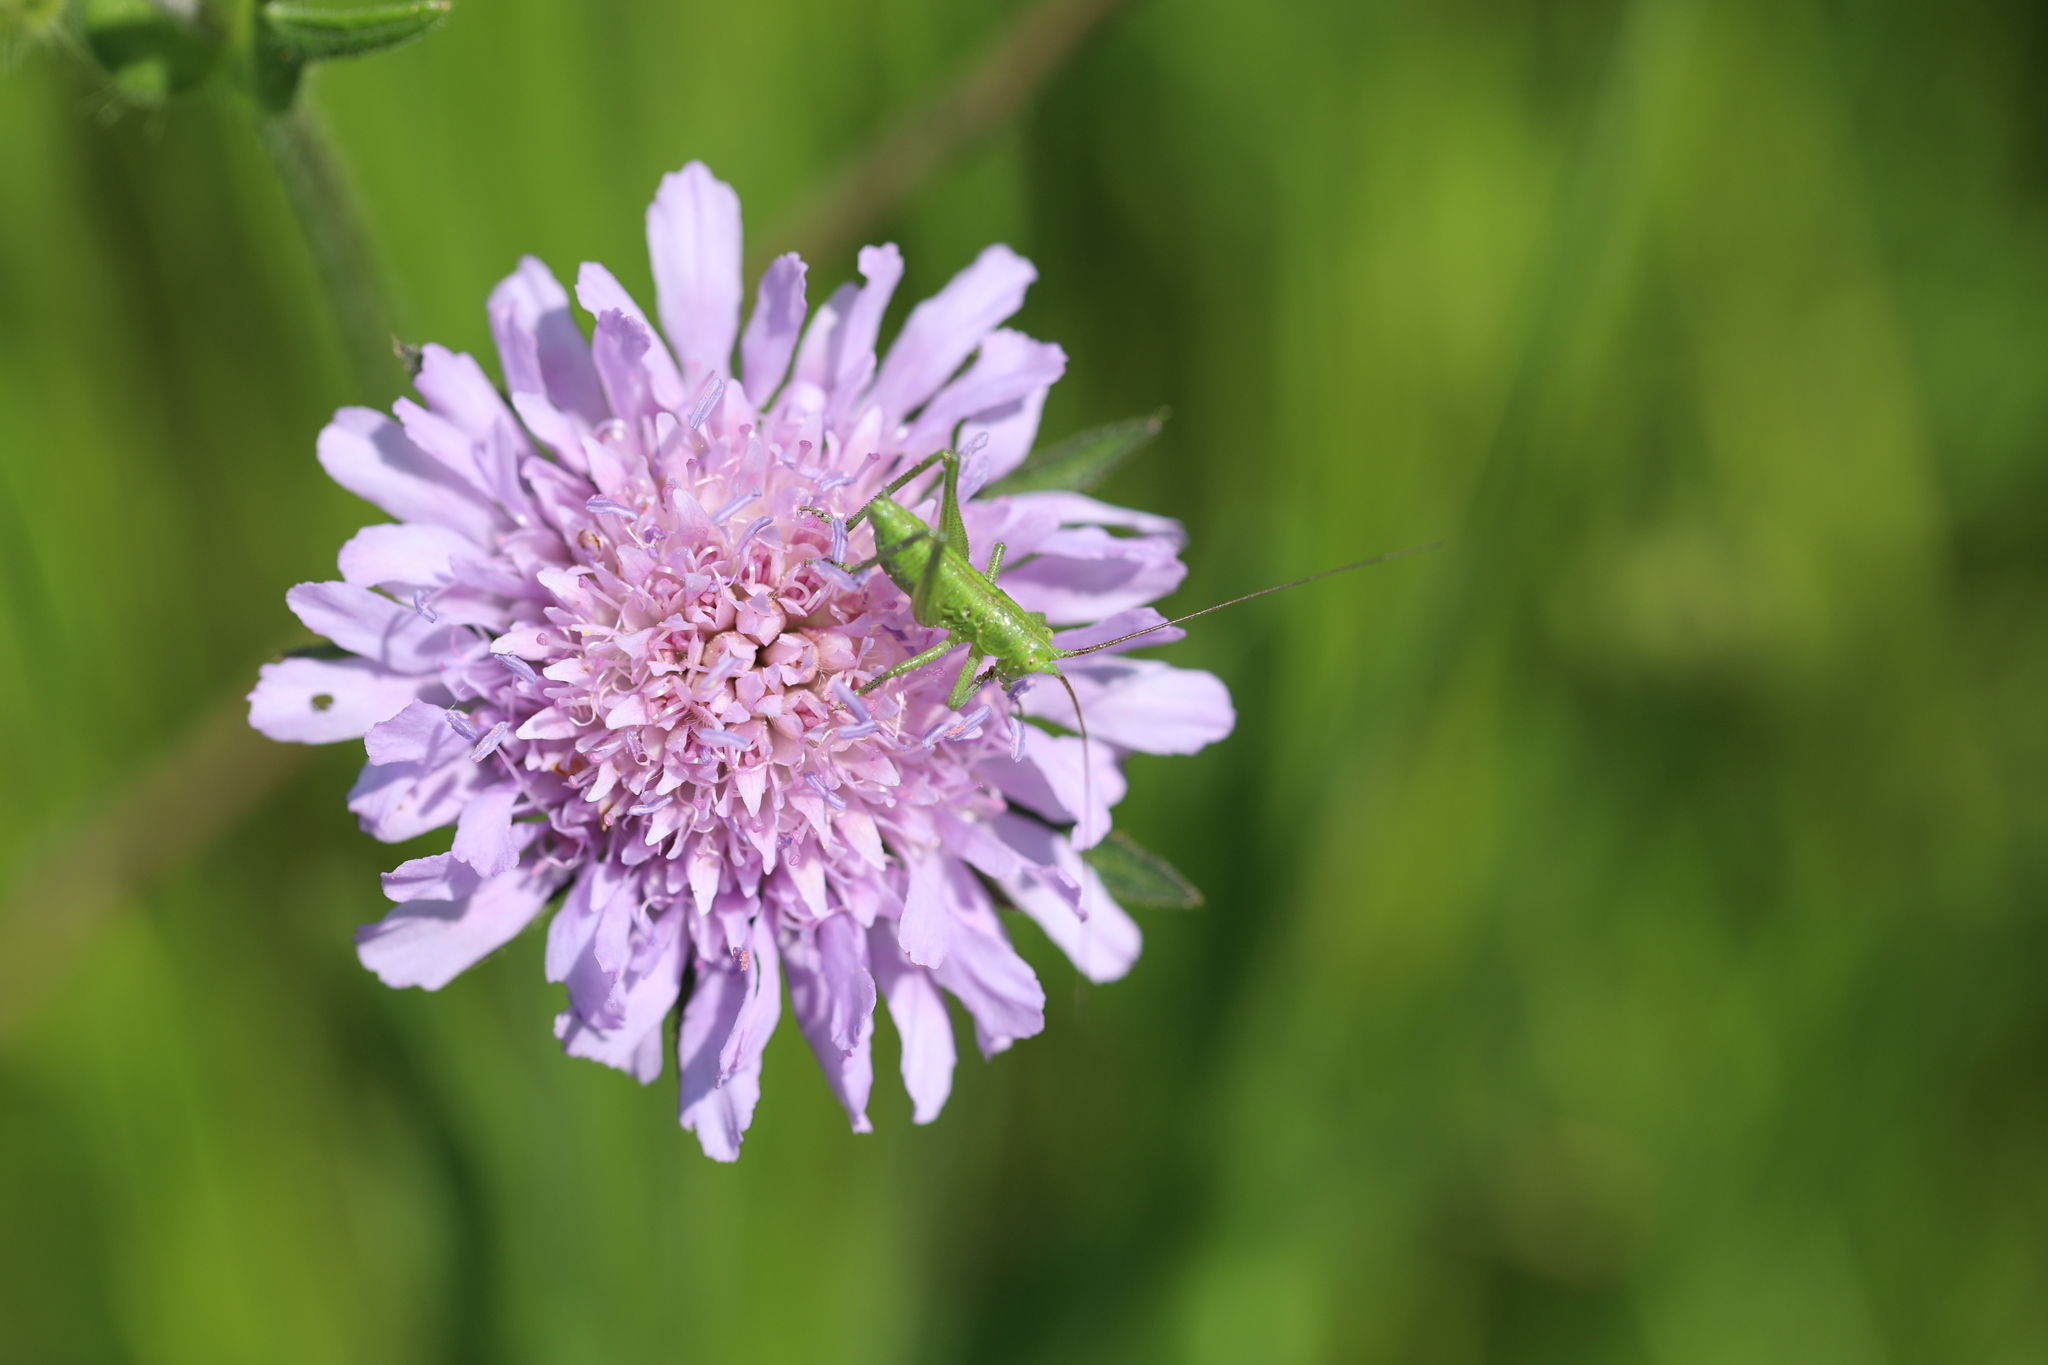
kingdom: Animalia
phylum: Arthropoda
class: Insecta
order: Orthoptera
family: Tettigoniidae
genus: Tettigonia
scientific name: Tettigonia viridissima
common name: Great green bush-cricket
